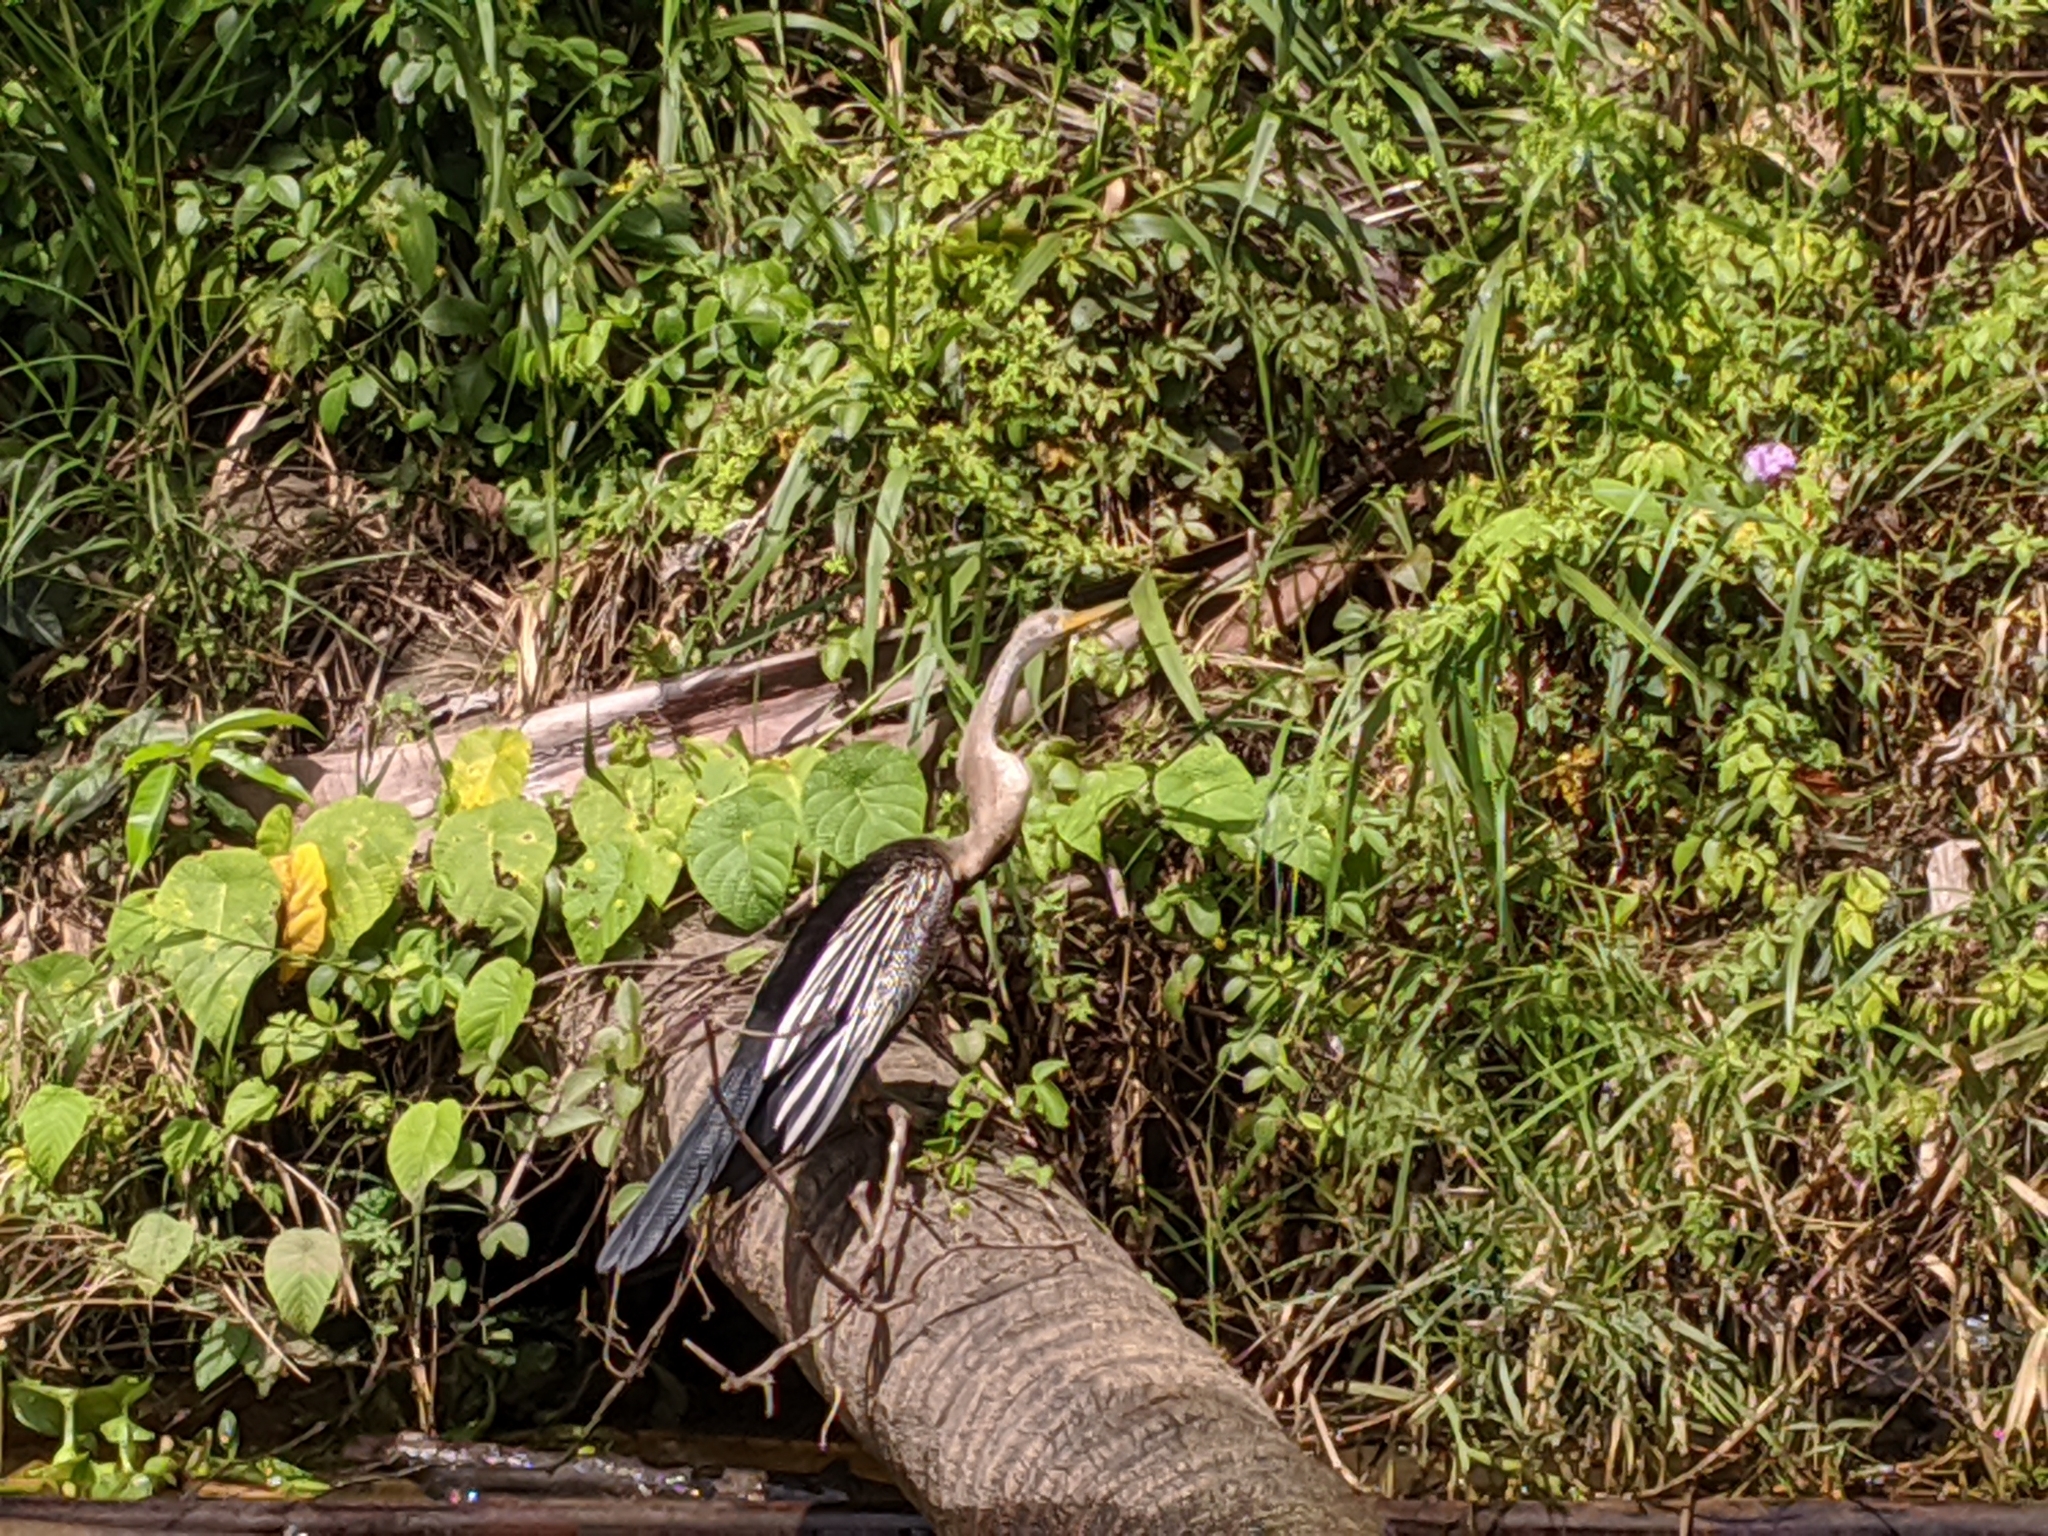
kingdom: Animalia
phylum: Chordata
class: Aves
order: Suliformes
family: Anhingidae
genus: Anhinga
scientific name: Anhinga melanogaster
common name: Oriental darter
